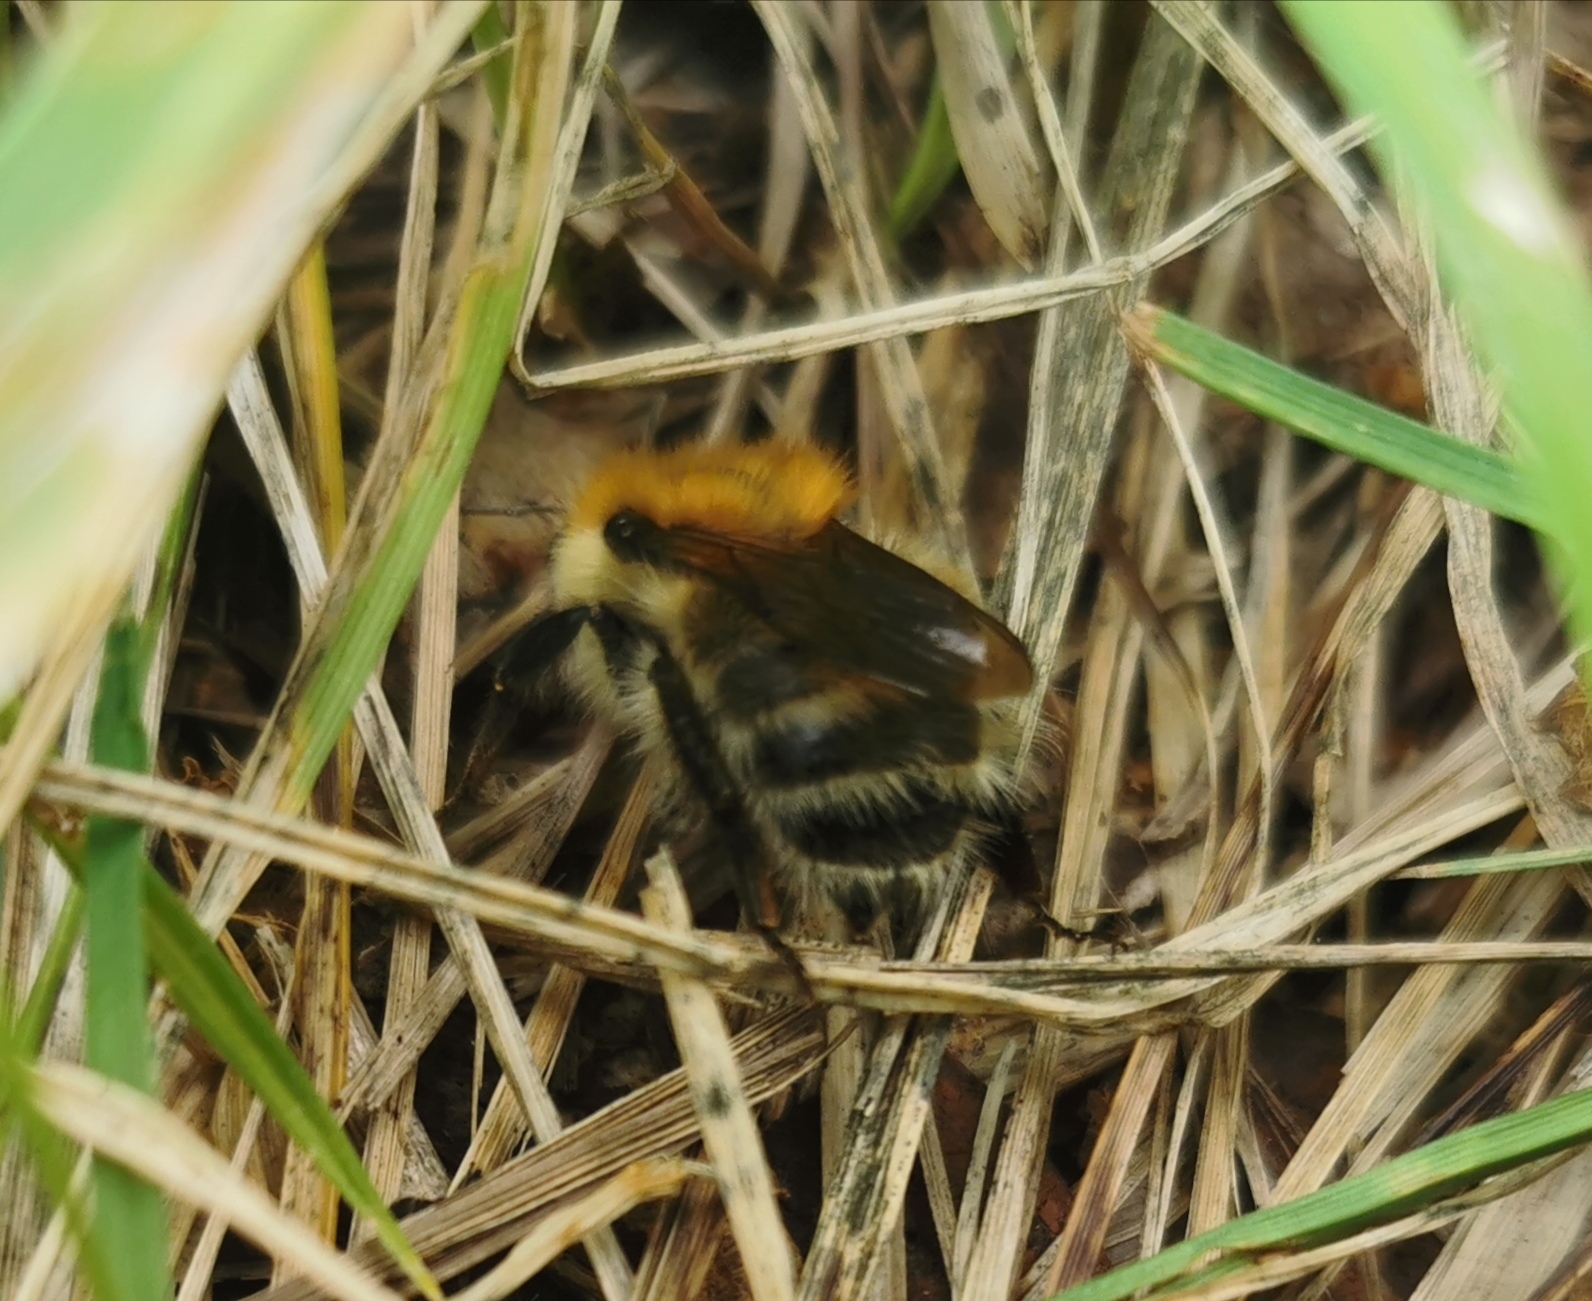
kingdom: Animalia
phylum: Arthropoda
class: Insecta
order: Hymenoptera
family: Apidae
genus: Bombus
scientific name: Bombus schrencki
